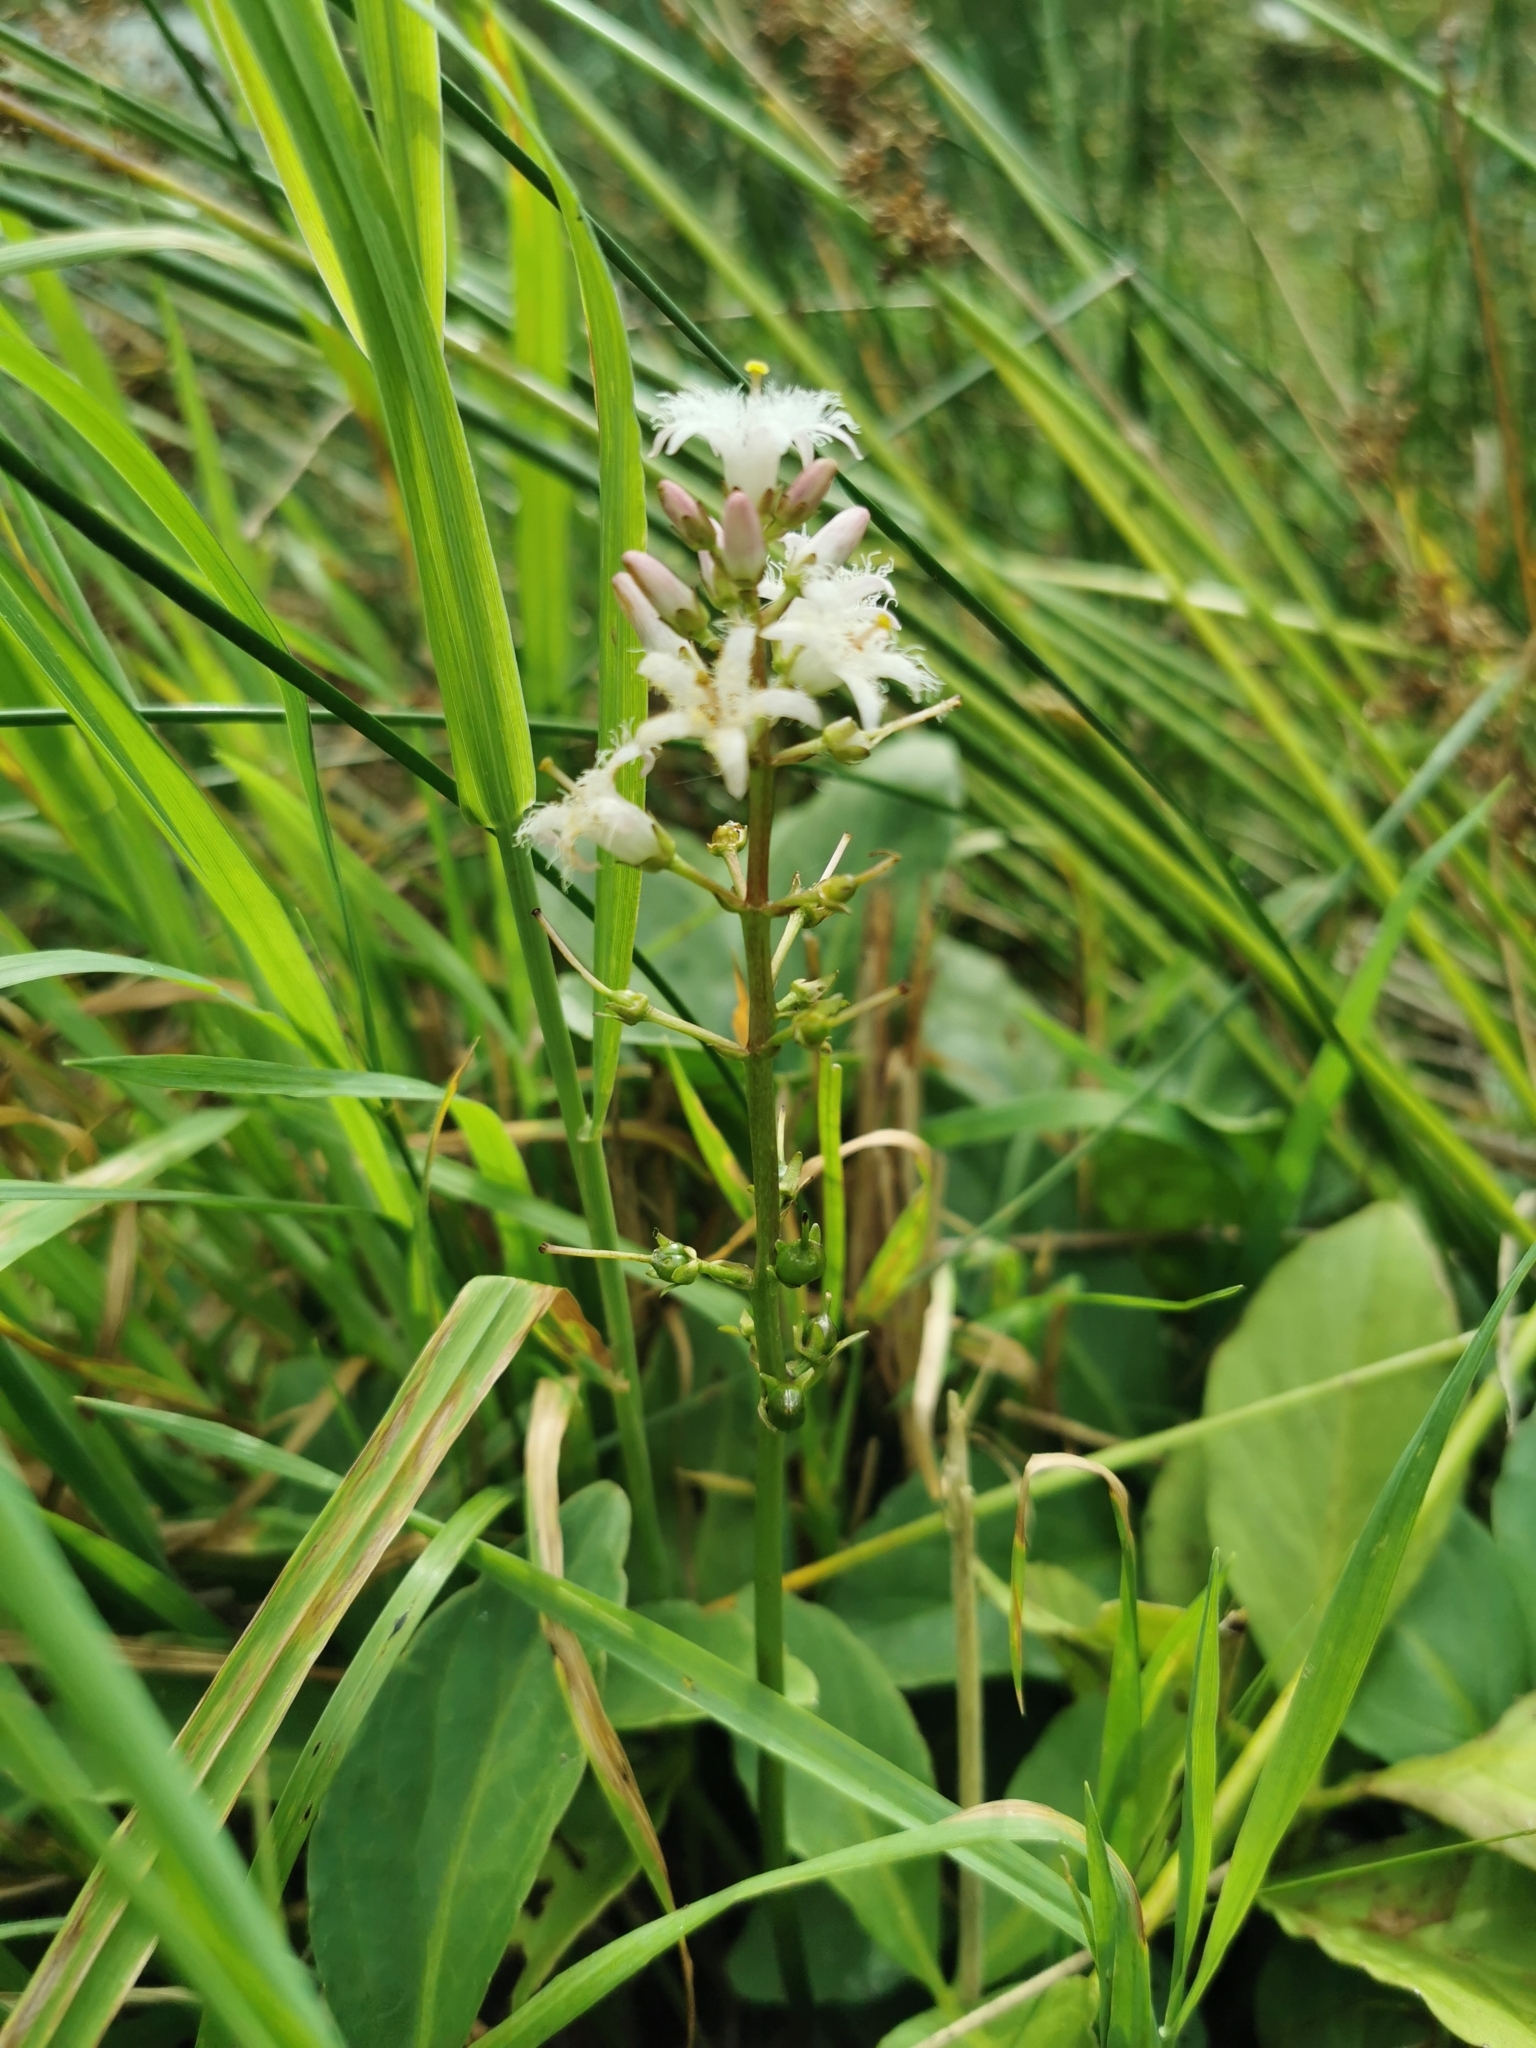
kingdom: Plantae
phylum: Tracheophyta
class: Magnoliopsida
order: Asterales
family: Menyanthaceae
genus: Menyanthes
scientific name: Menyanthes trifoliata
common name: Bogbean
